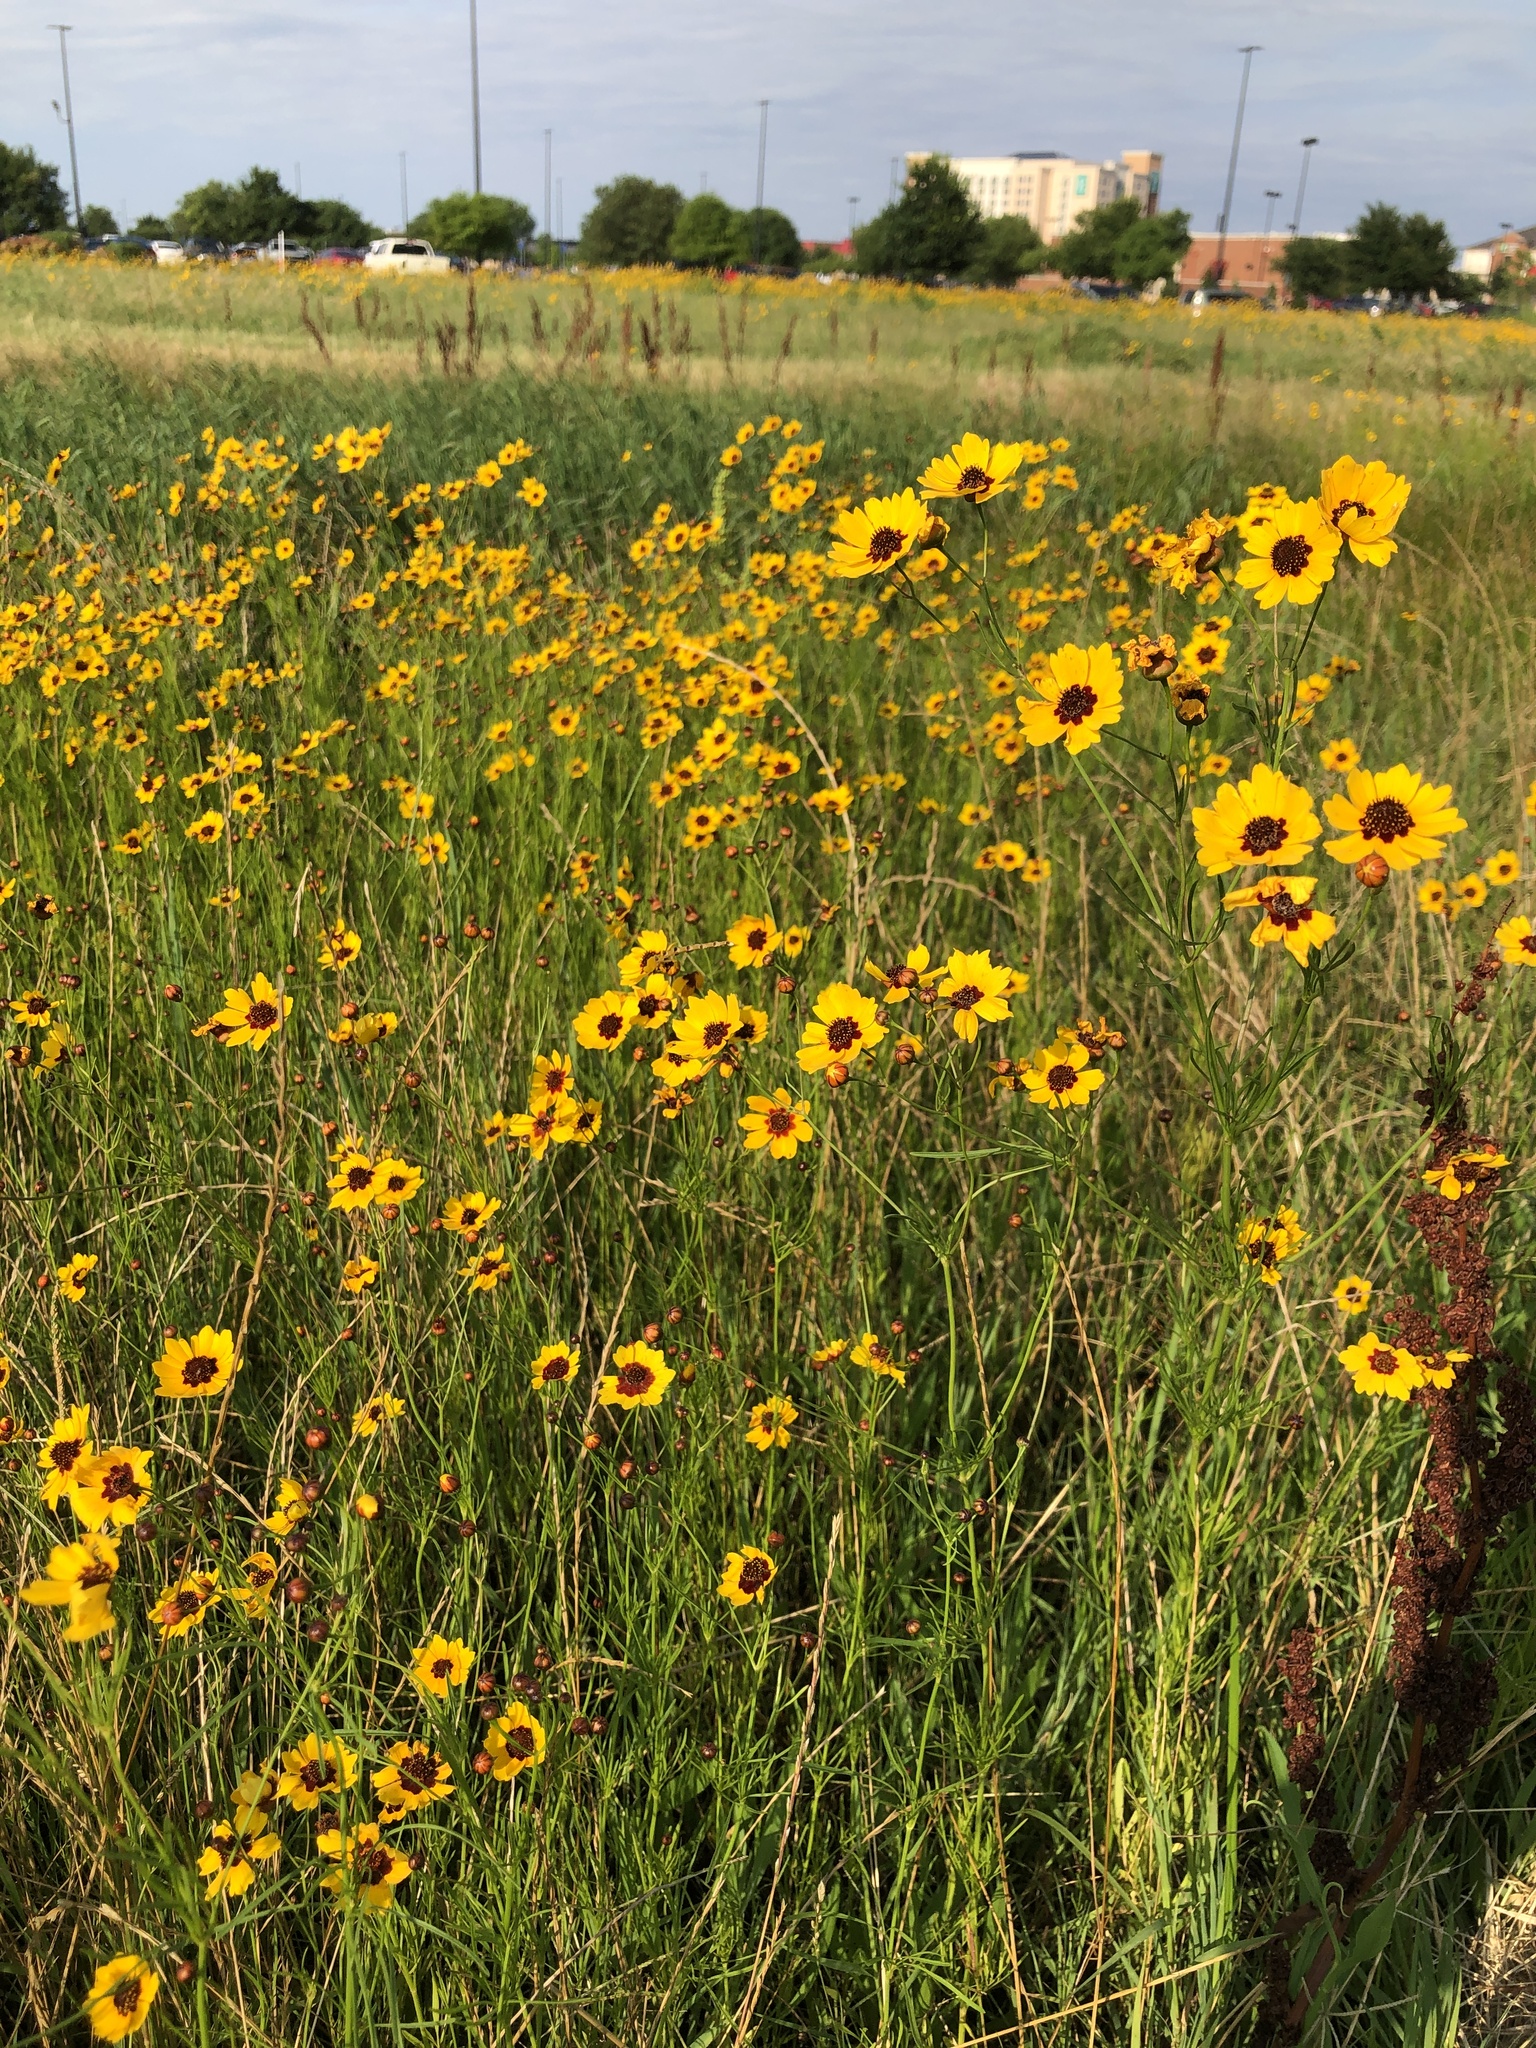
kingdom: Plantae
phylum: Tracheophyta
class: Magnoliopsida
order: Asterales
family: Asteraceae
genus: Coreopsis
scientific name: Coreopsis tinctoria
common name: Garden tickseed
